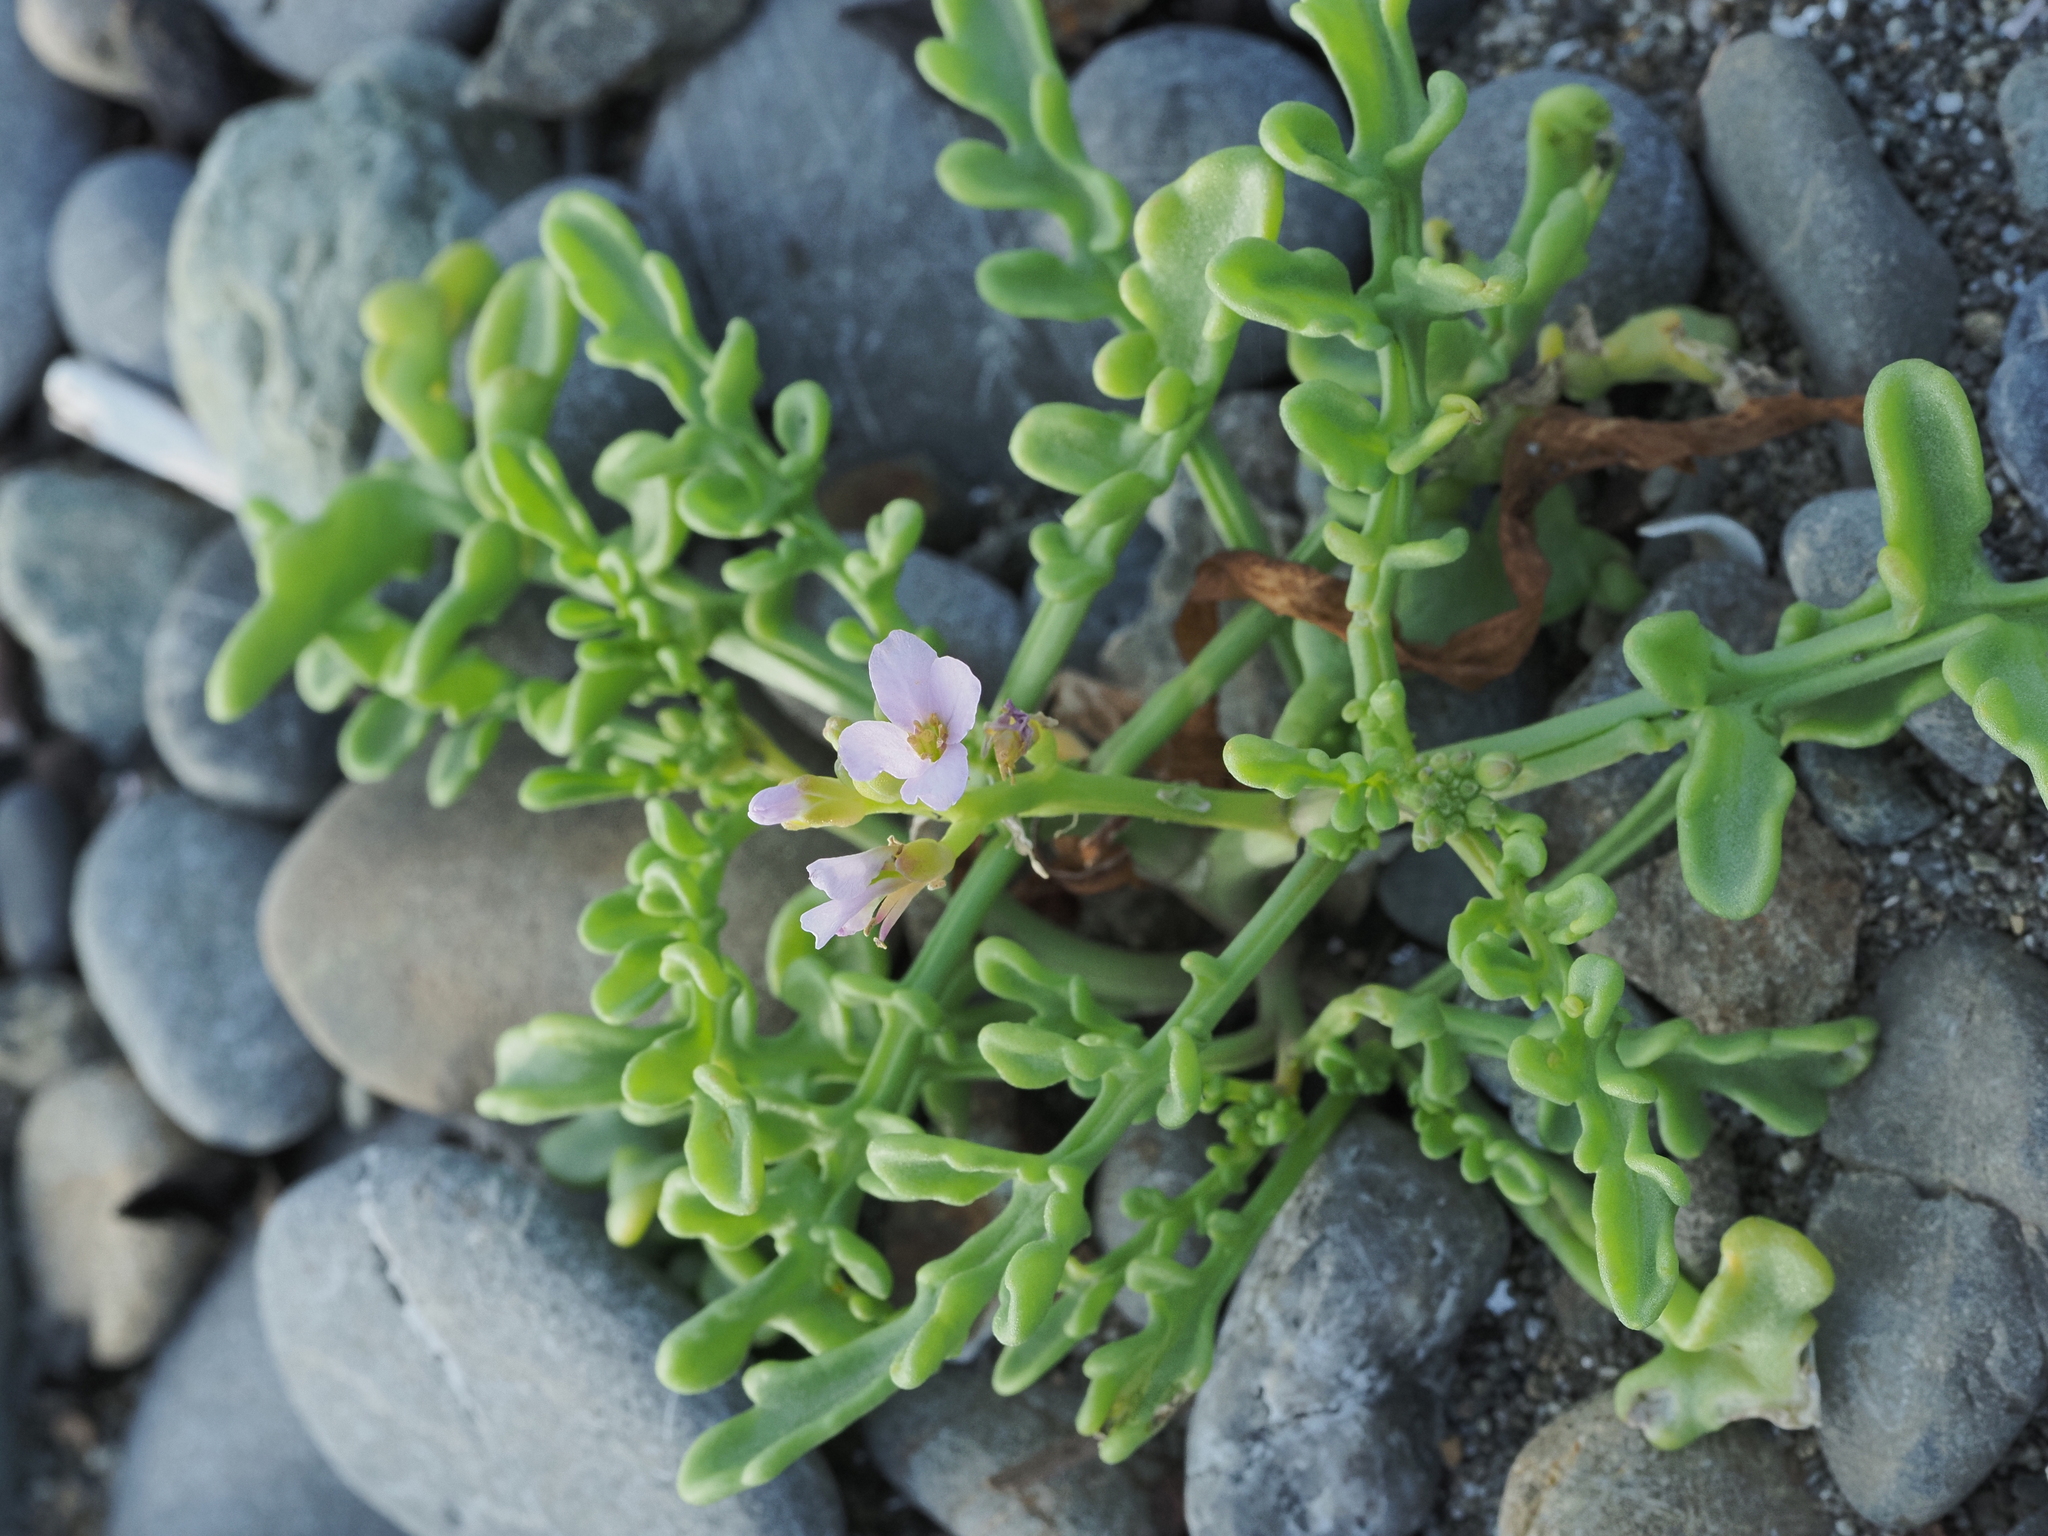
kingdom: Plantae
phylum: Tracheophyta
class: Magnoliopsida
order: Brassicales
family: Brassicaceae
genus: Cakile
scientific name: Cakile maritima
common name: Sea rocket
